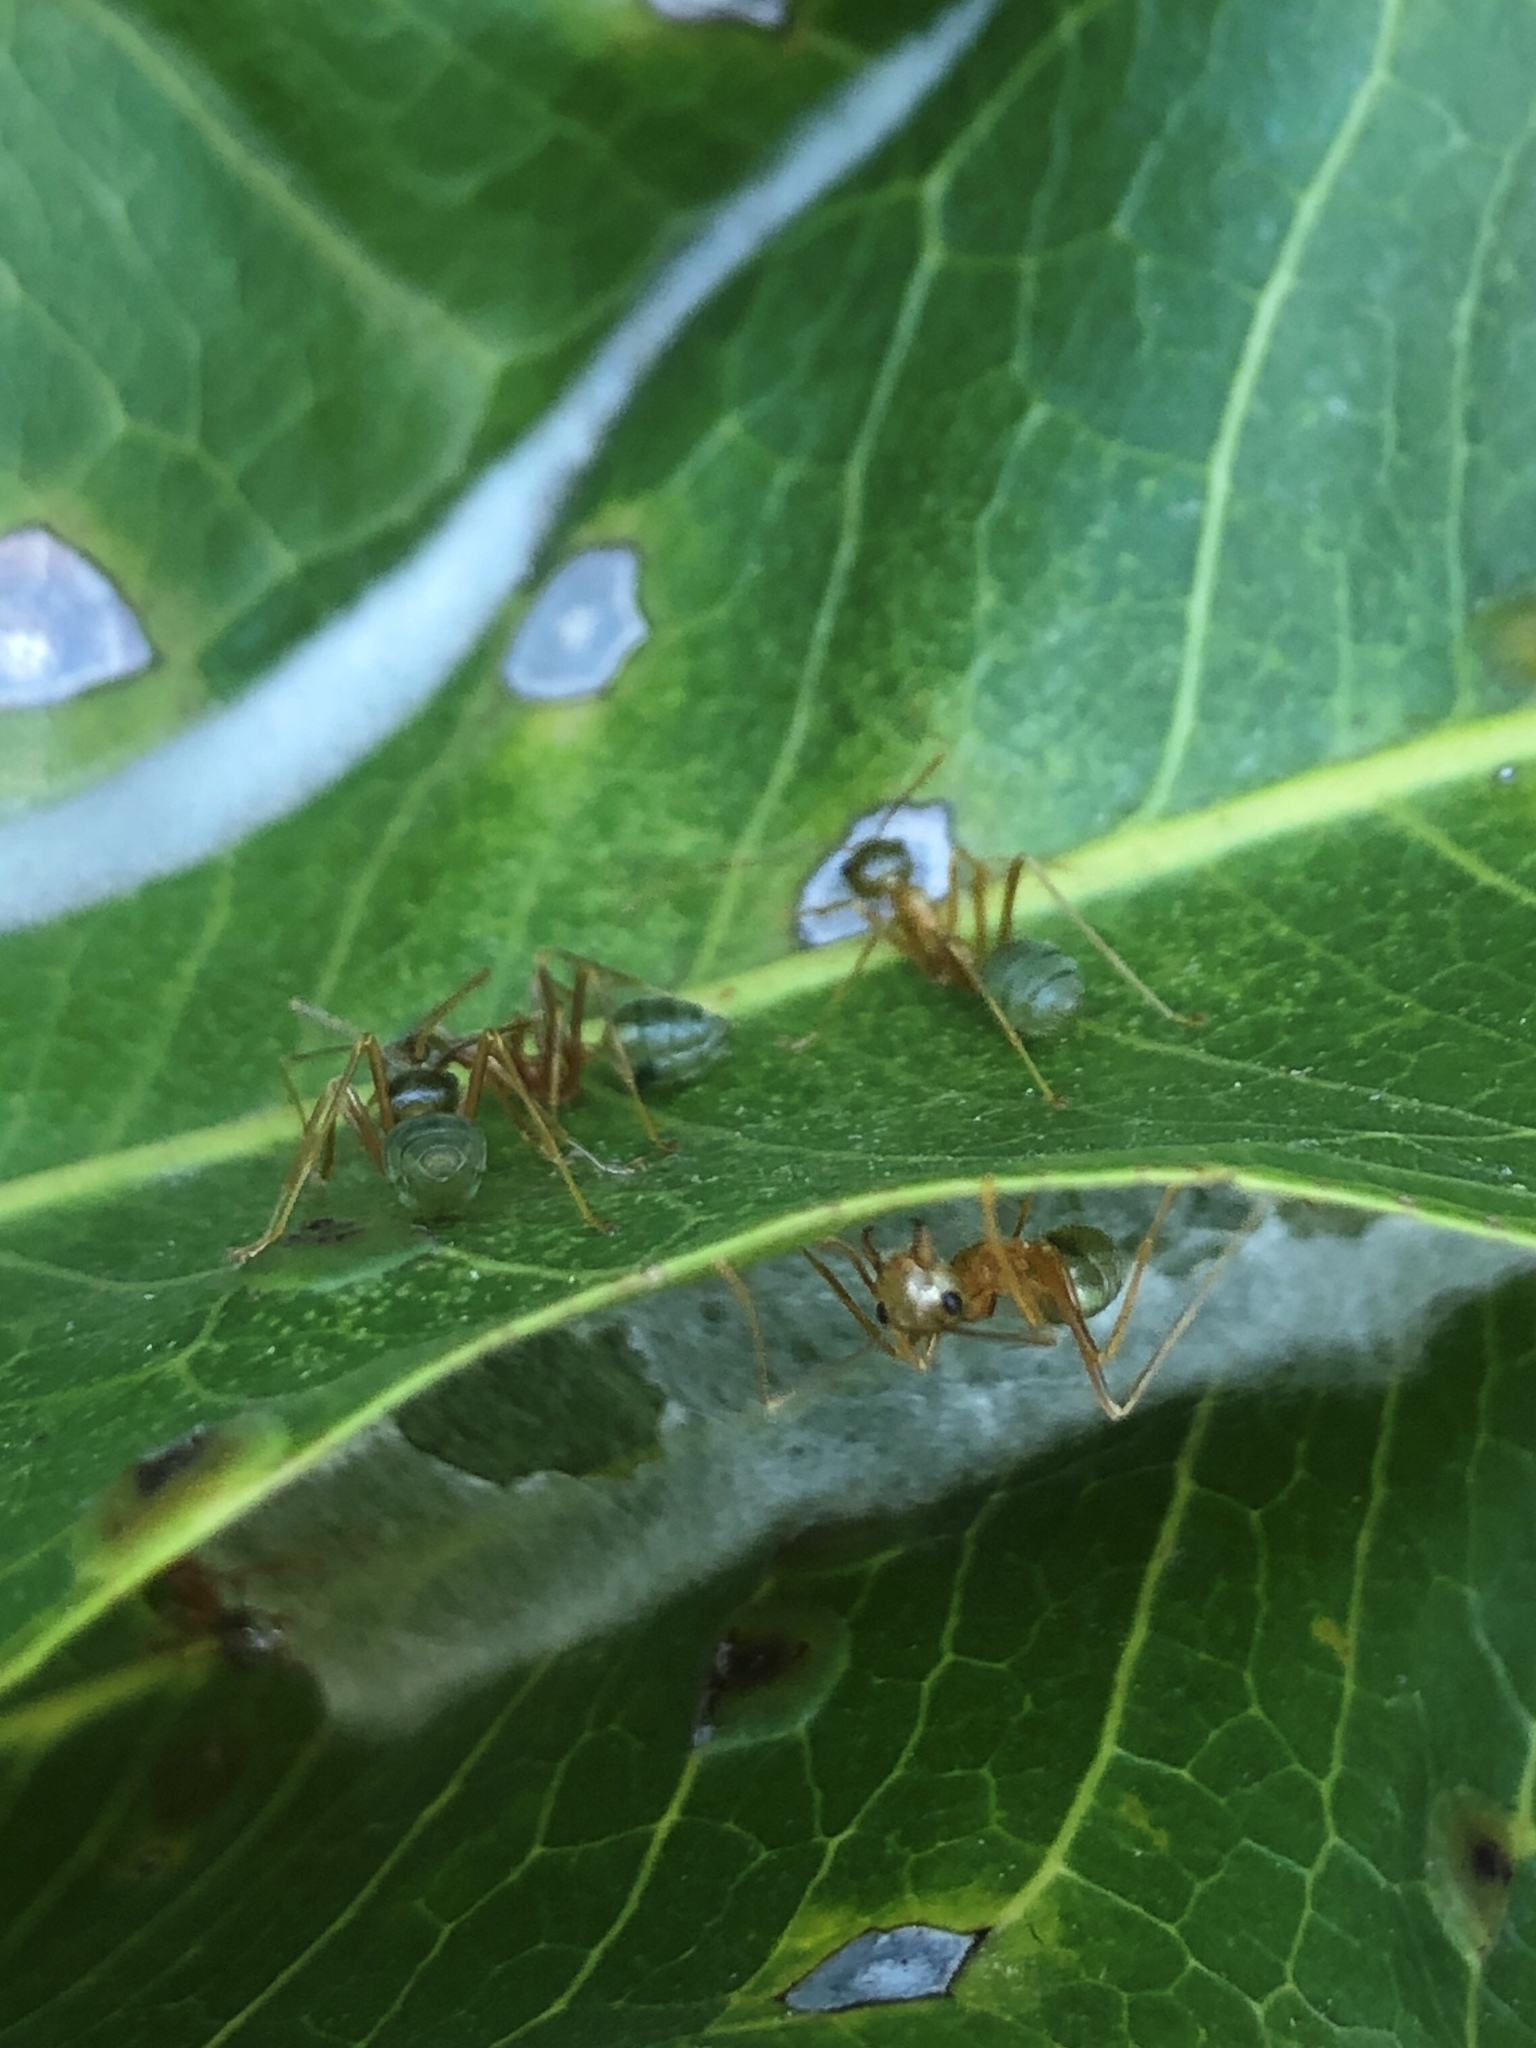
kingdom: Animalia
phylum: Arthropoda
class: Insecta
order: Hymenoptera
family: Formicidae
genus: Oecophylla
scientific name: Oecophylla smaragdina
